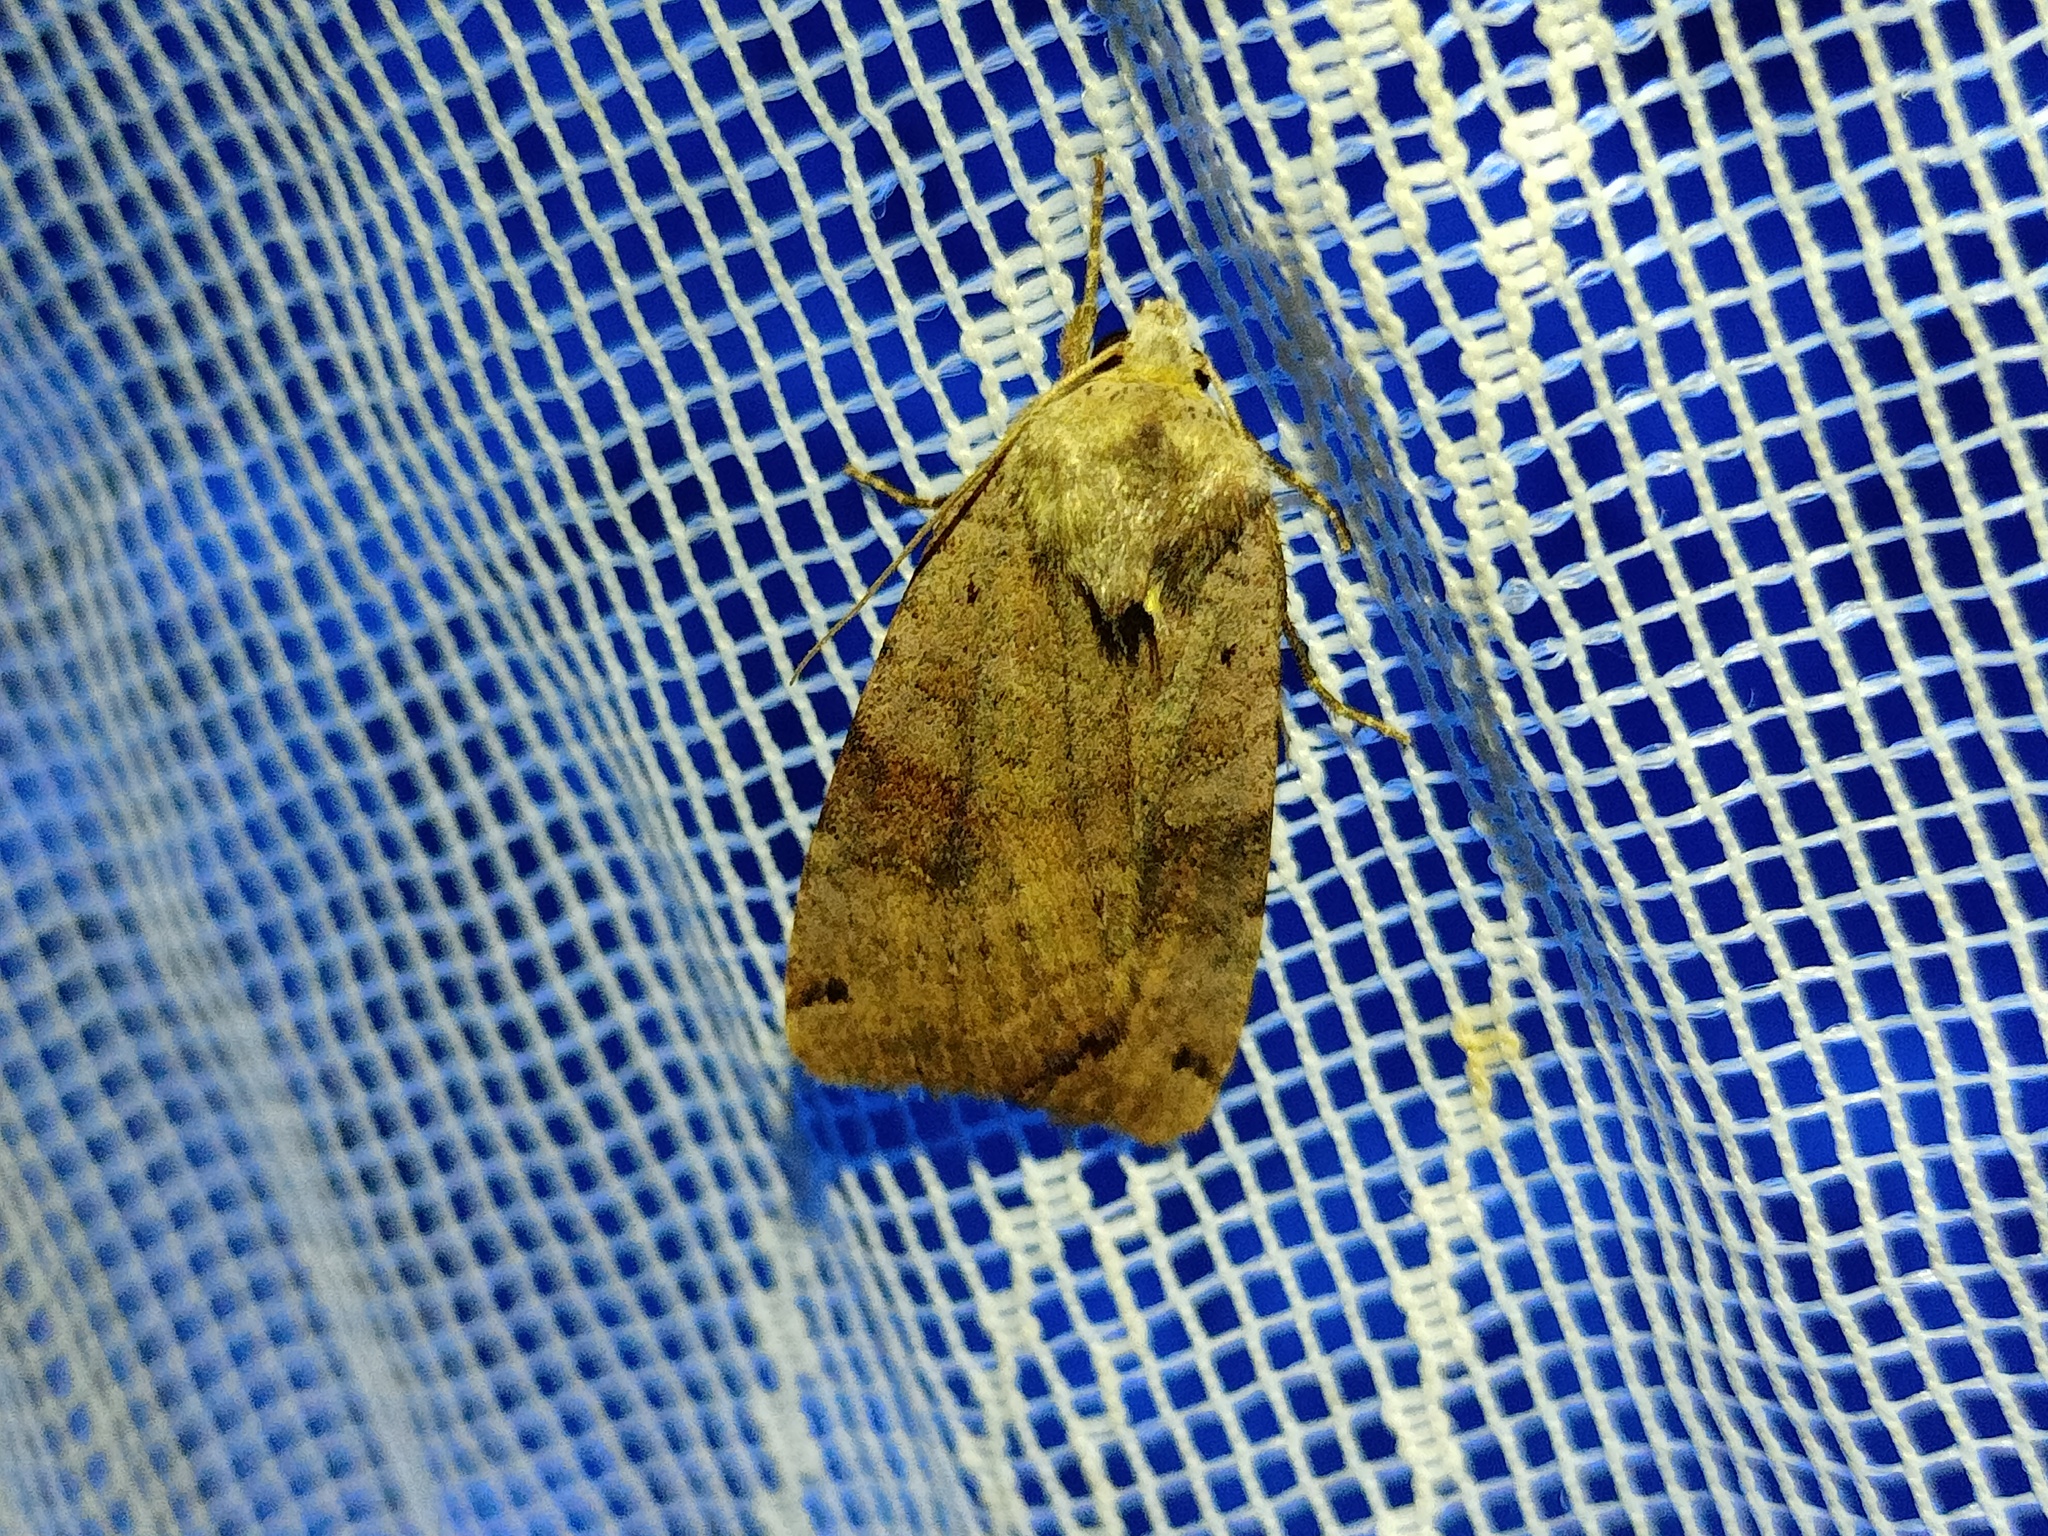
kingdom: Animalia
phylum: Arthropoda
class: Insecta
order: Lepidoptera
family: Noctuidae
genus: Xestia
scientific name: Xestia baja
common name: Dotted clay
